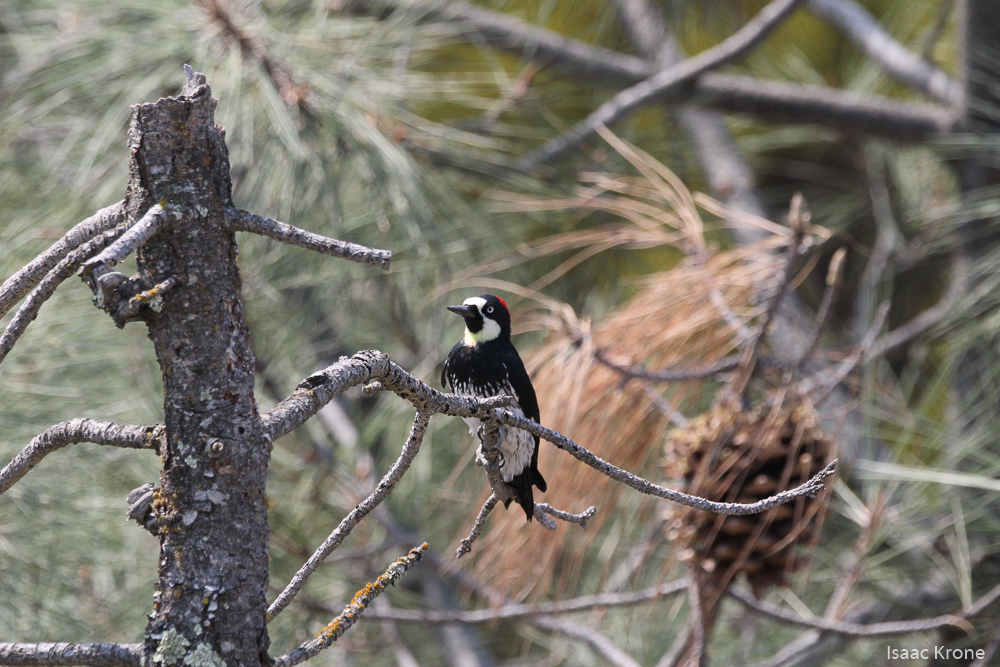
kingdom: Animalia
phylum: Chordata
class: Aves
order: Piciformes
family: Picidae
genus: Melanerpes
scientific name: Melanerpes formicivorus
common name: Acorn woodpecker
